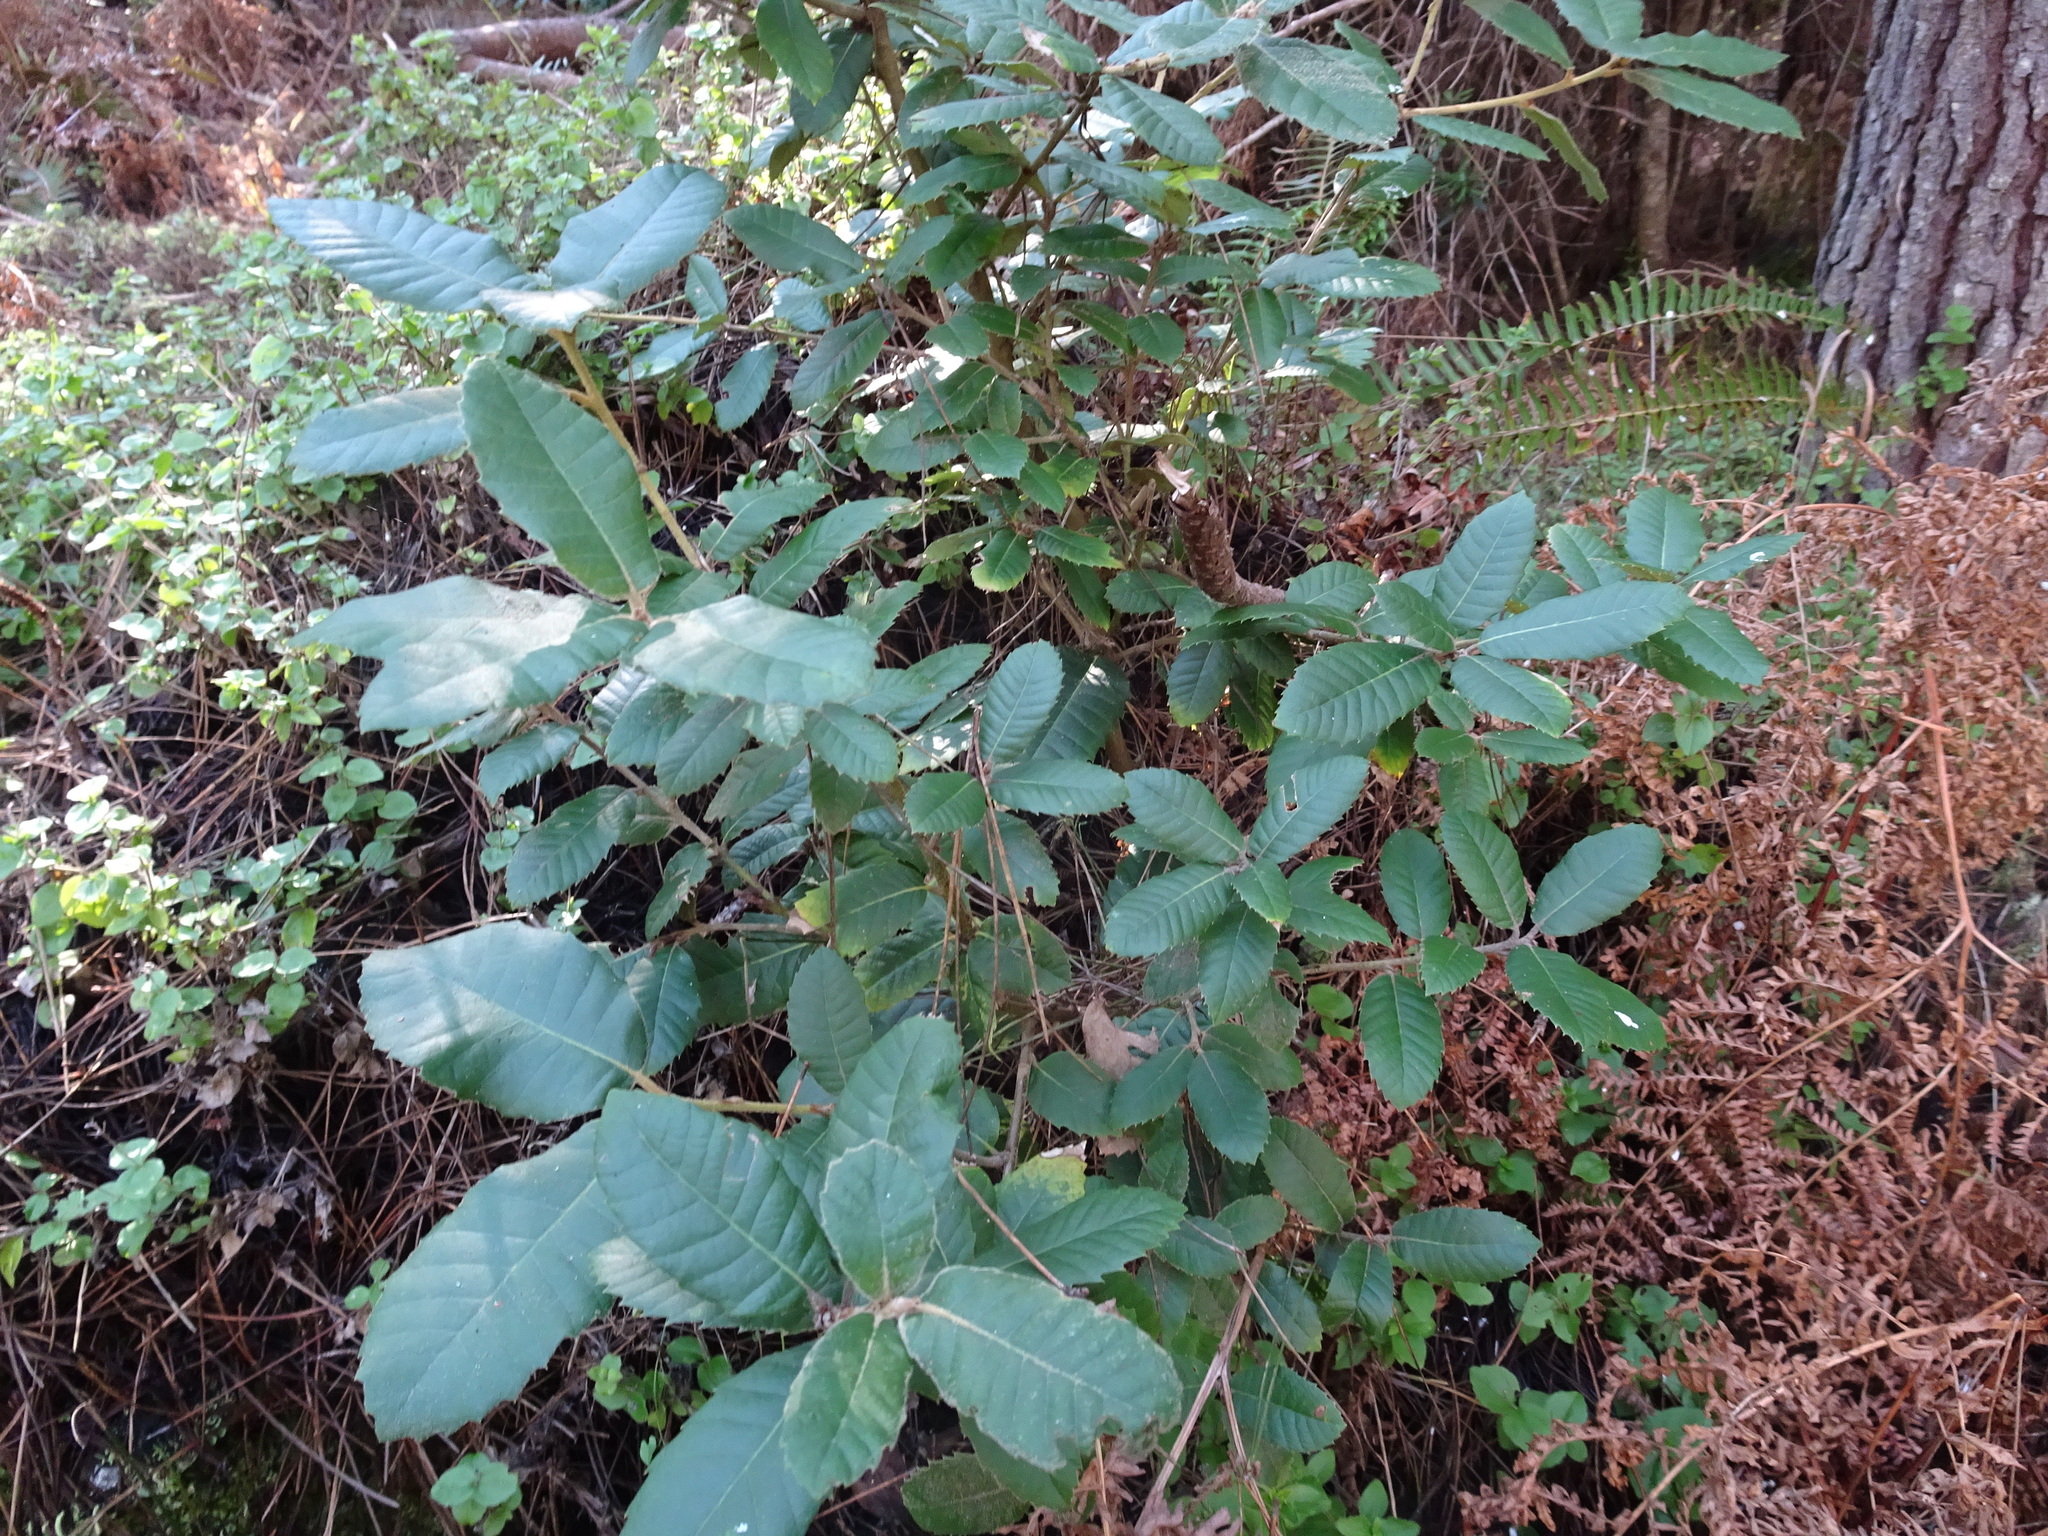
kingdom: Plantae
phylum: Tracheophyta
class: Magnoliopsida
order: Fagales
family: Fagaceae
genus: Notholithocarpus
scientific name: Notholithocarpus densiflorus
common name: Tan bark oak
